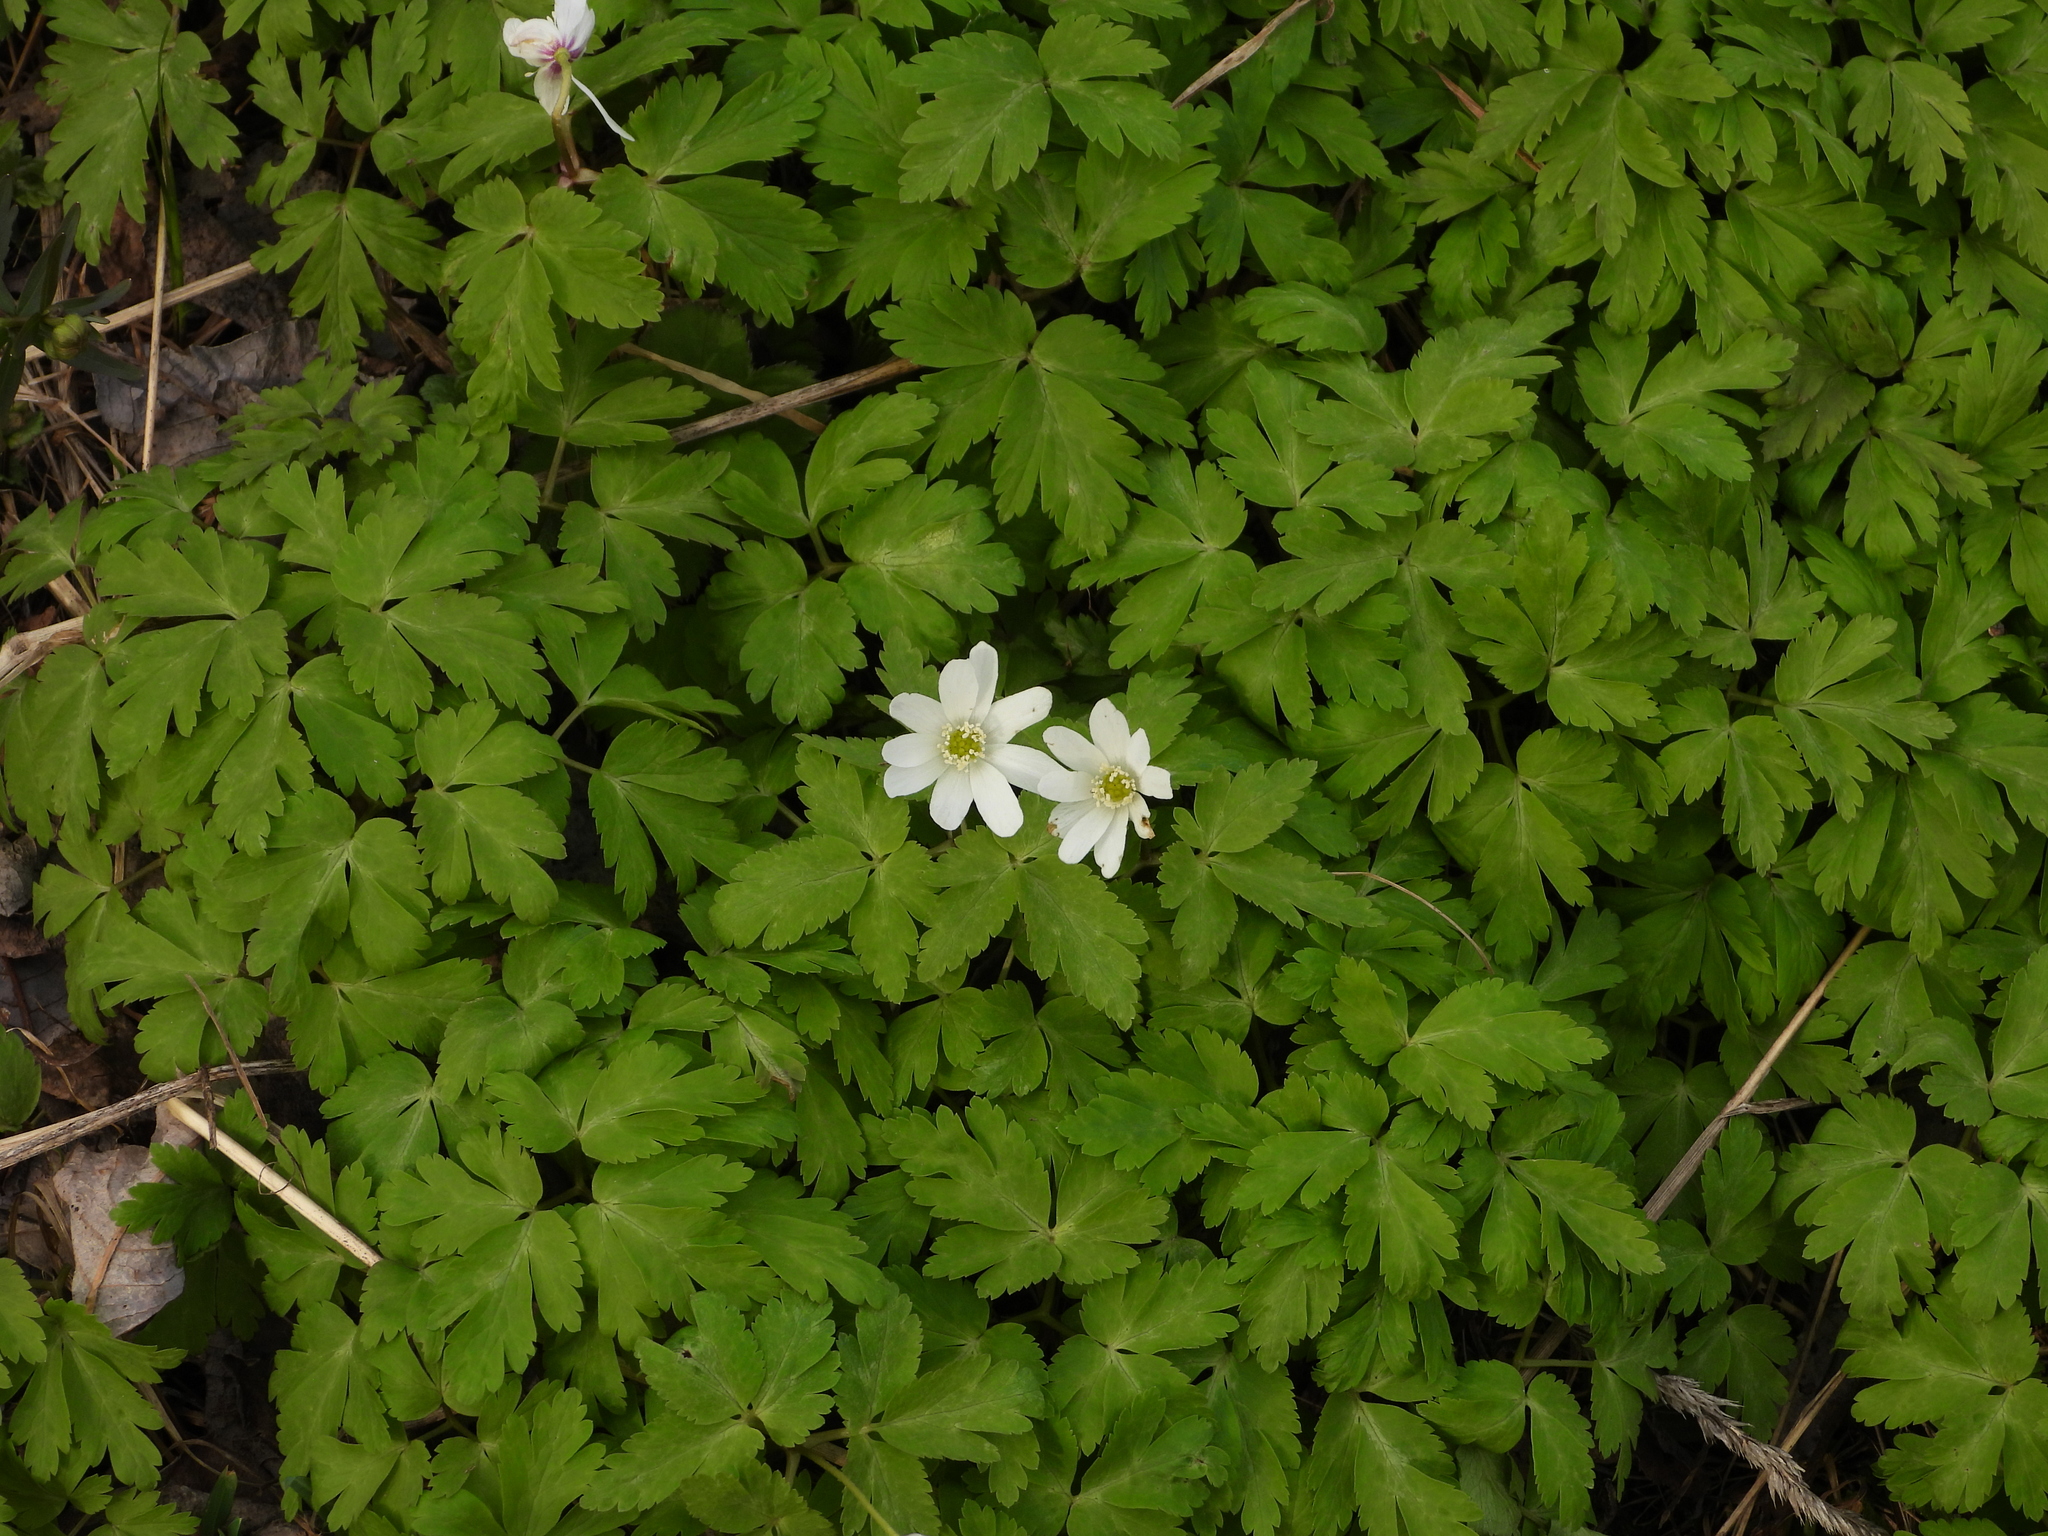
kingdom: Plantae
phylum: Tracheophyta
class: Magnoliopsida
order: Ranunculales
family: Ranunculaceae
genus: Anemone
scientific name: Anemone altaica
